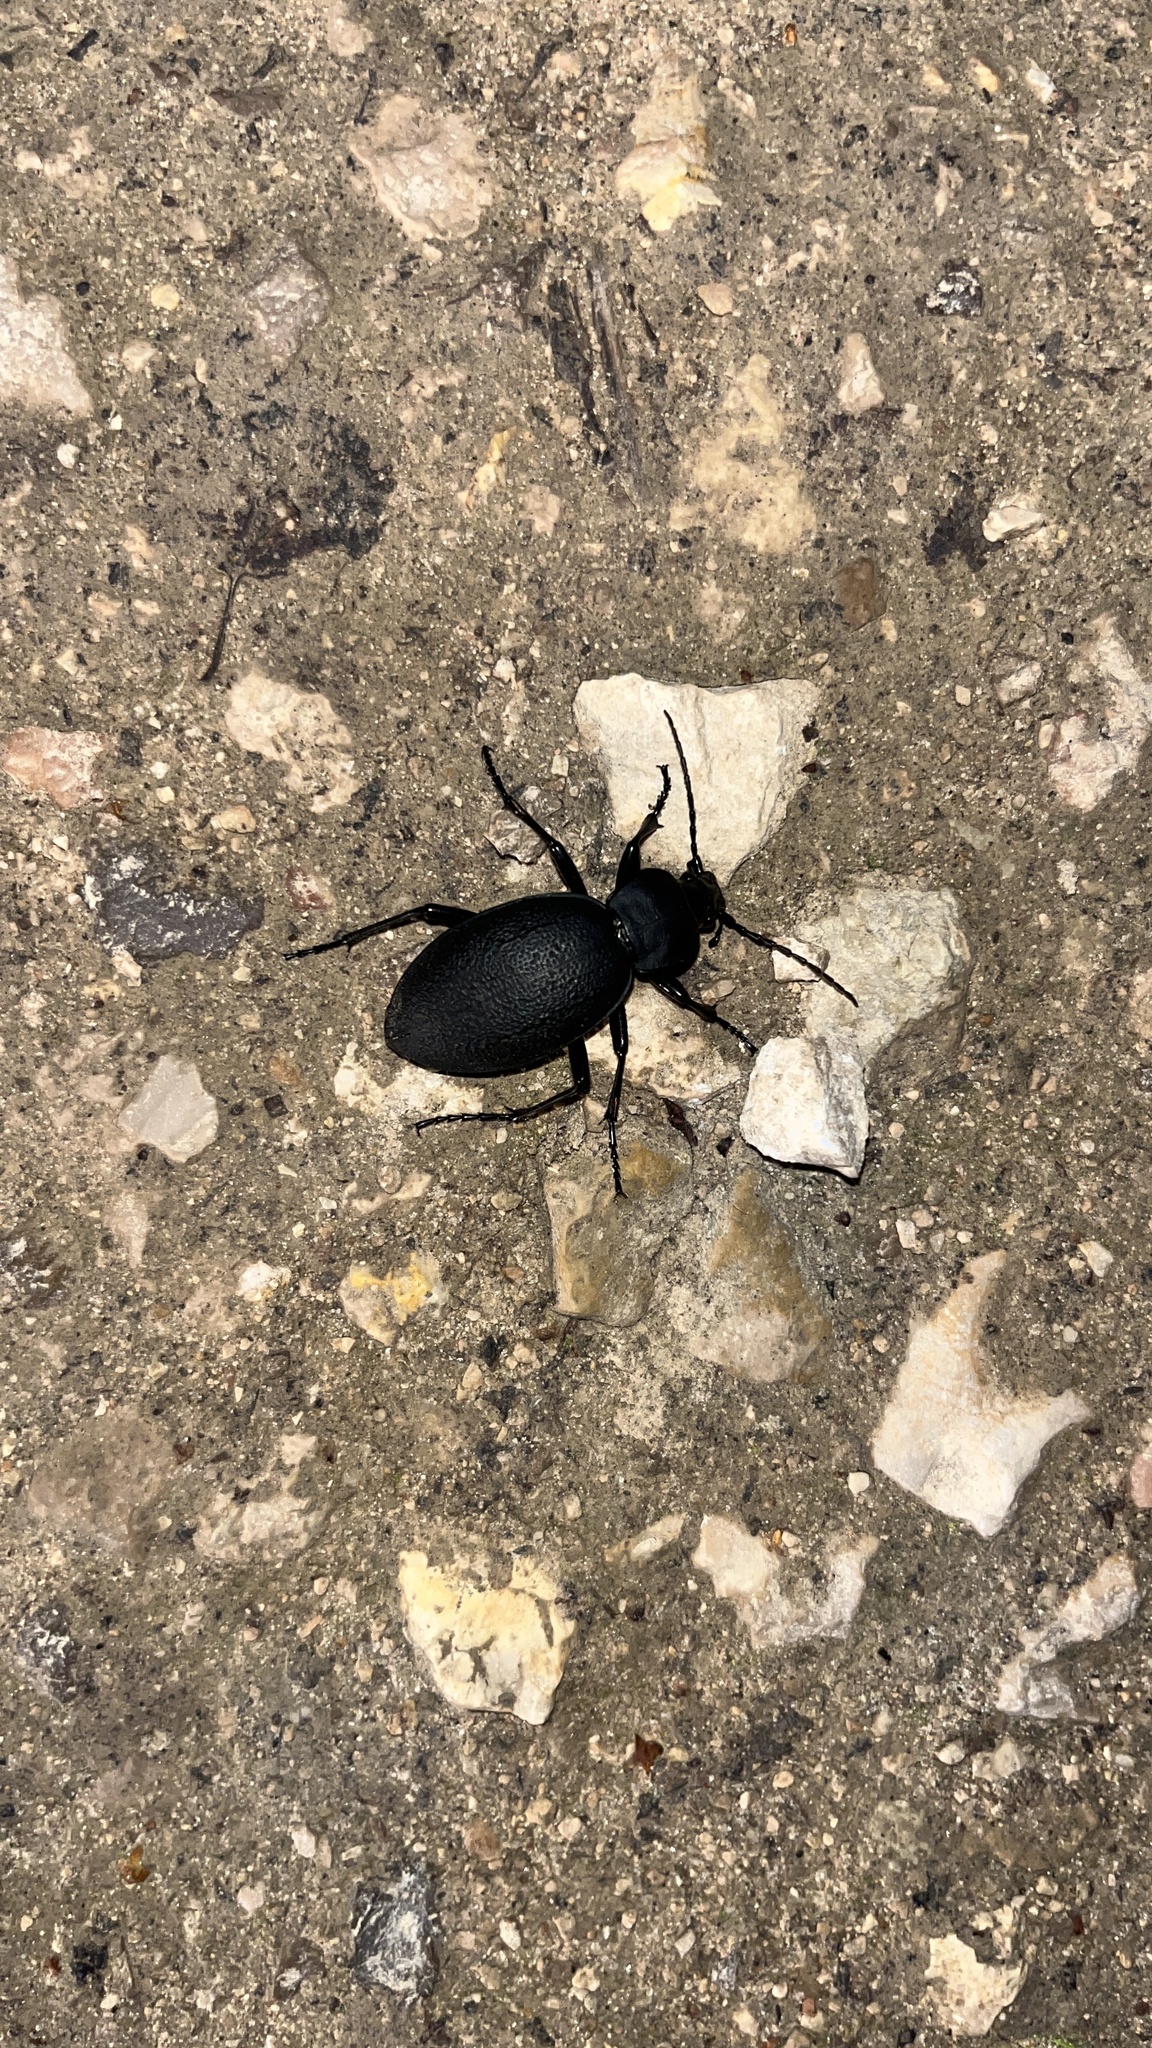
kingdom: Animalia
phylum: Arthropoda
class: Insecta
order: Coleoptera
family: Carabidae
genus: Carabus
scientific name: Carabus coriaceus
